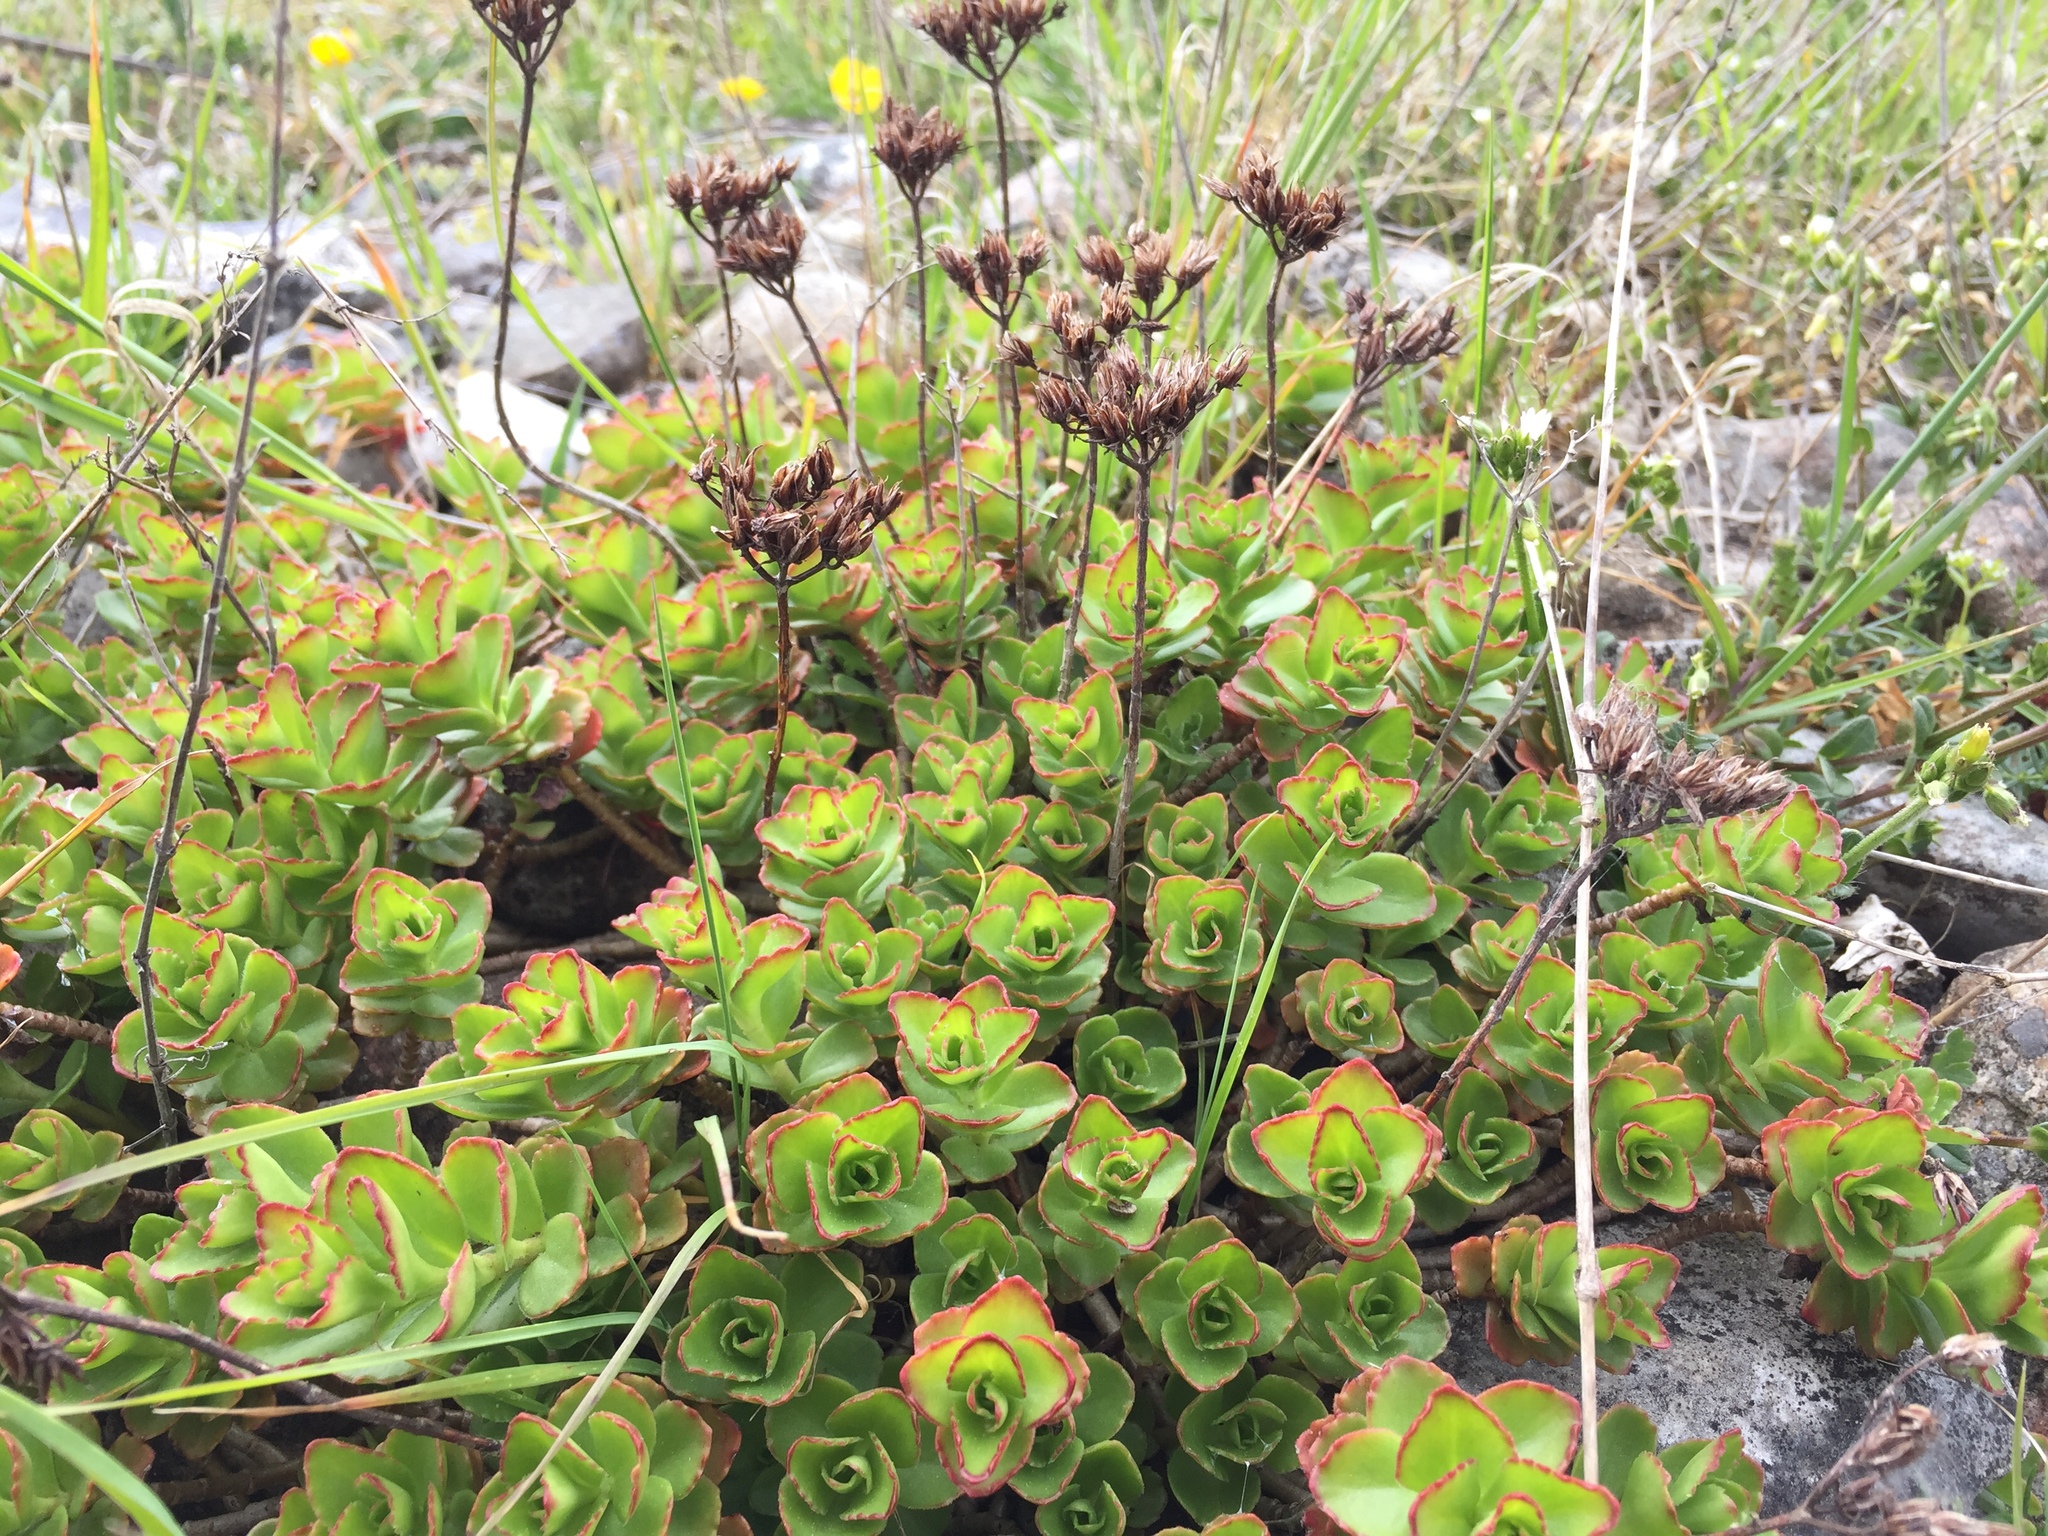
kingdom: Plantae
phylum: Tracheophyta
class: Magnoliopsida
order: Saxifragales
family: Crassulaceae
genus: Phedimus
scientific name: Phedimus spurius
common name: Caucasian stonecrop
